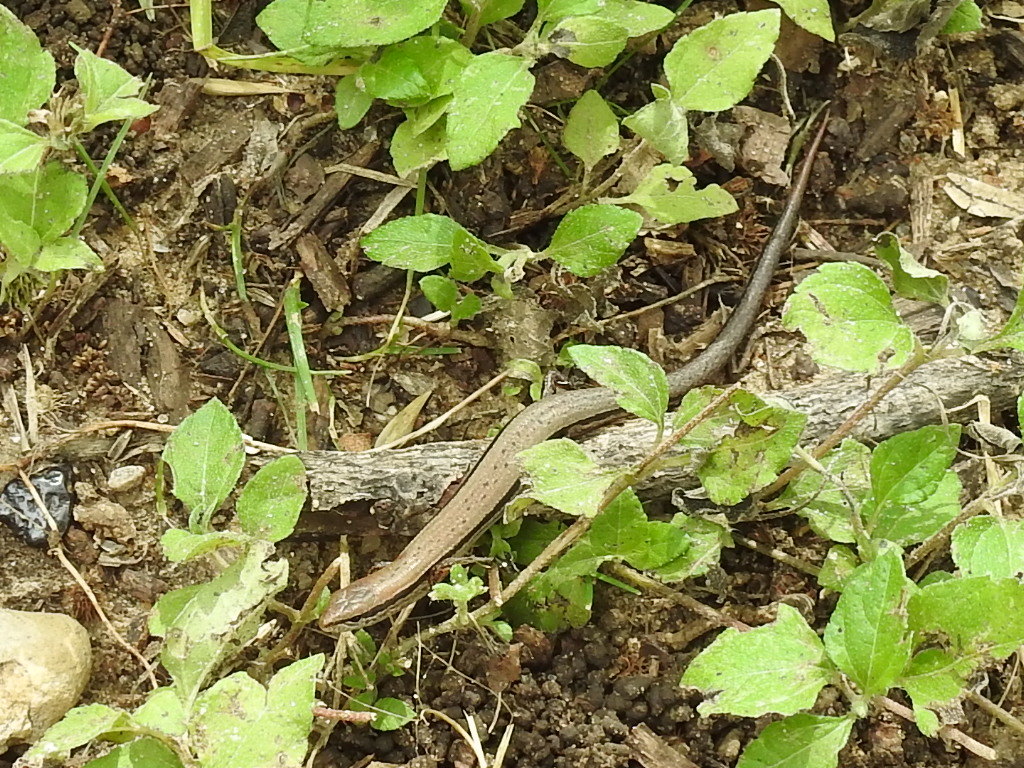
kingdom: Animalia
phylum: Chordata
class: Squamata
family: Scincidae
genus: Scincella
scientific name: Scincella lateralis
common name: Ground skink
